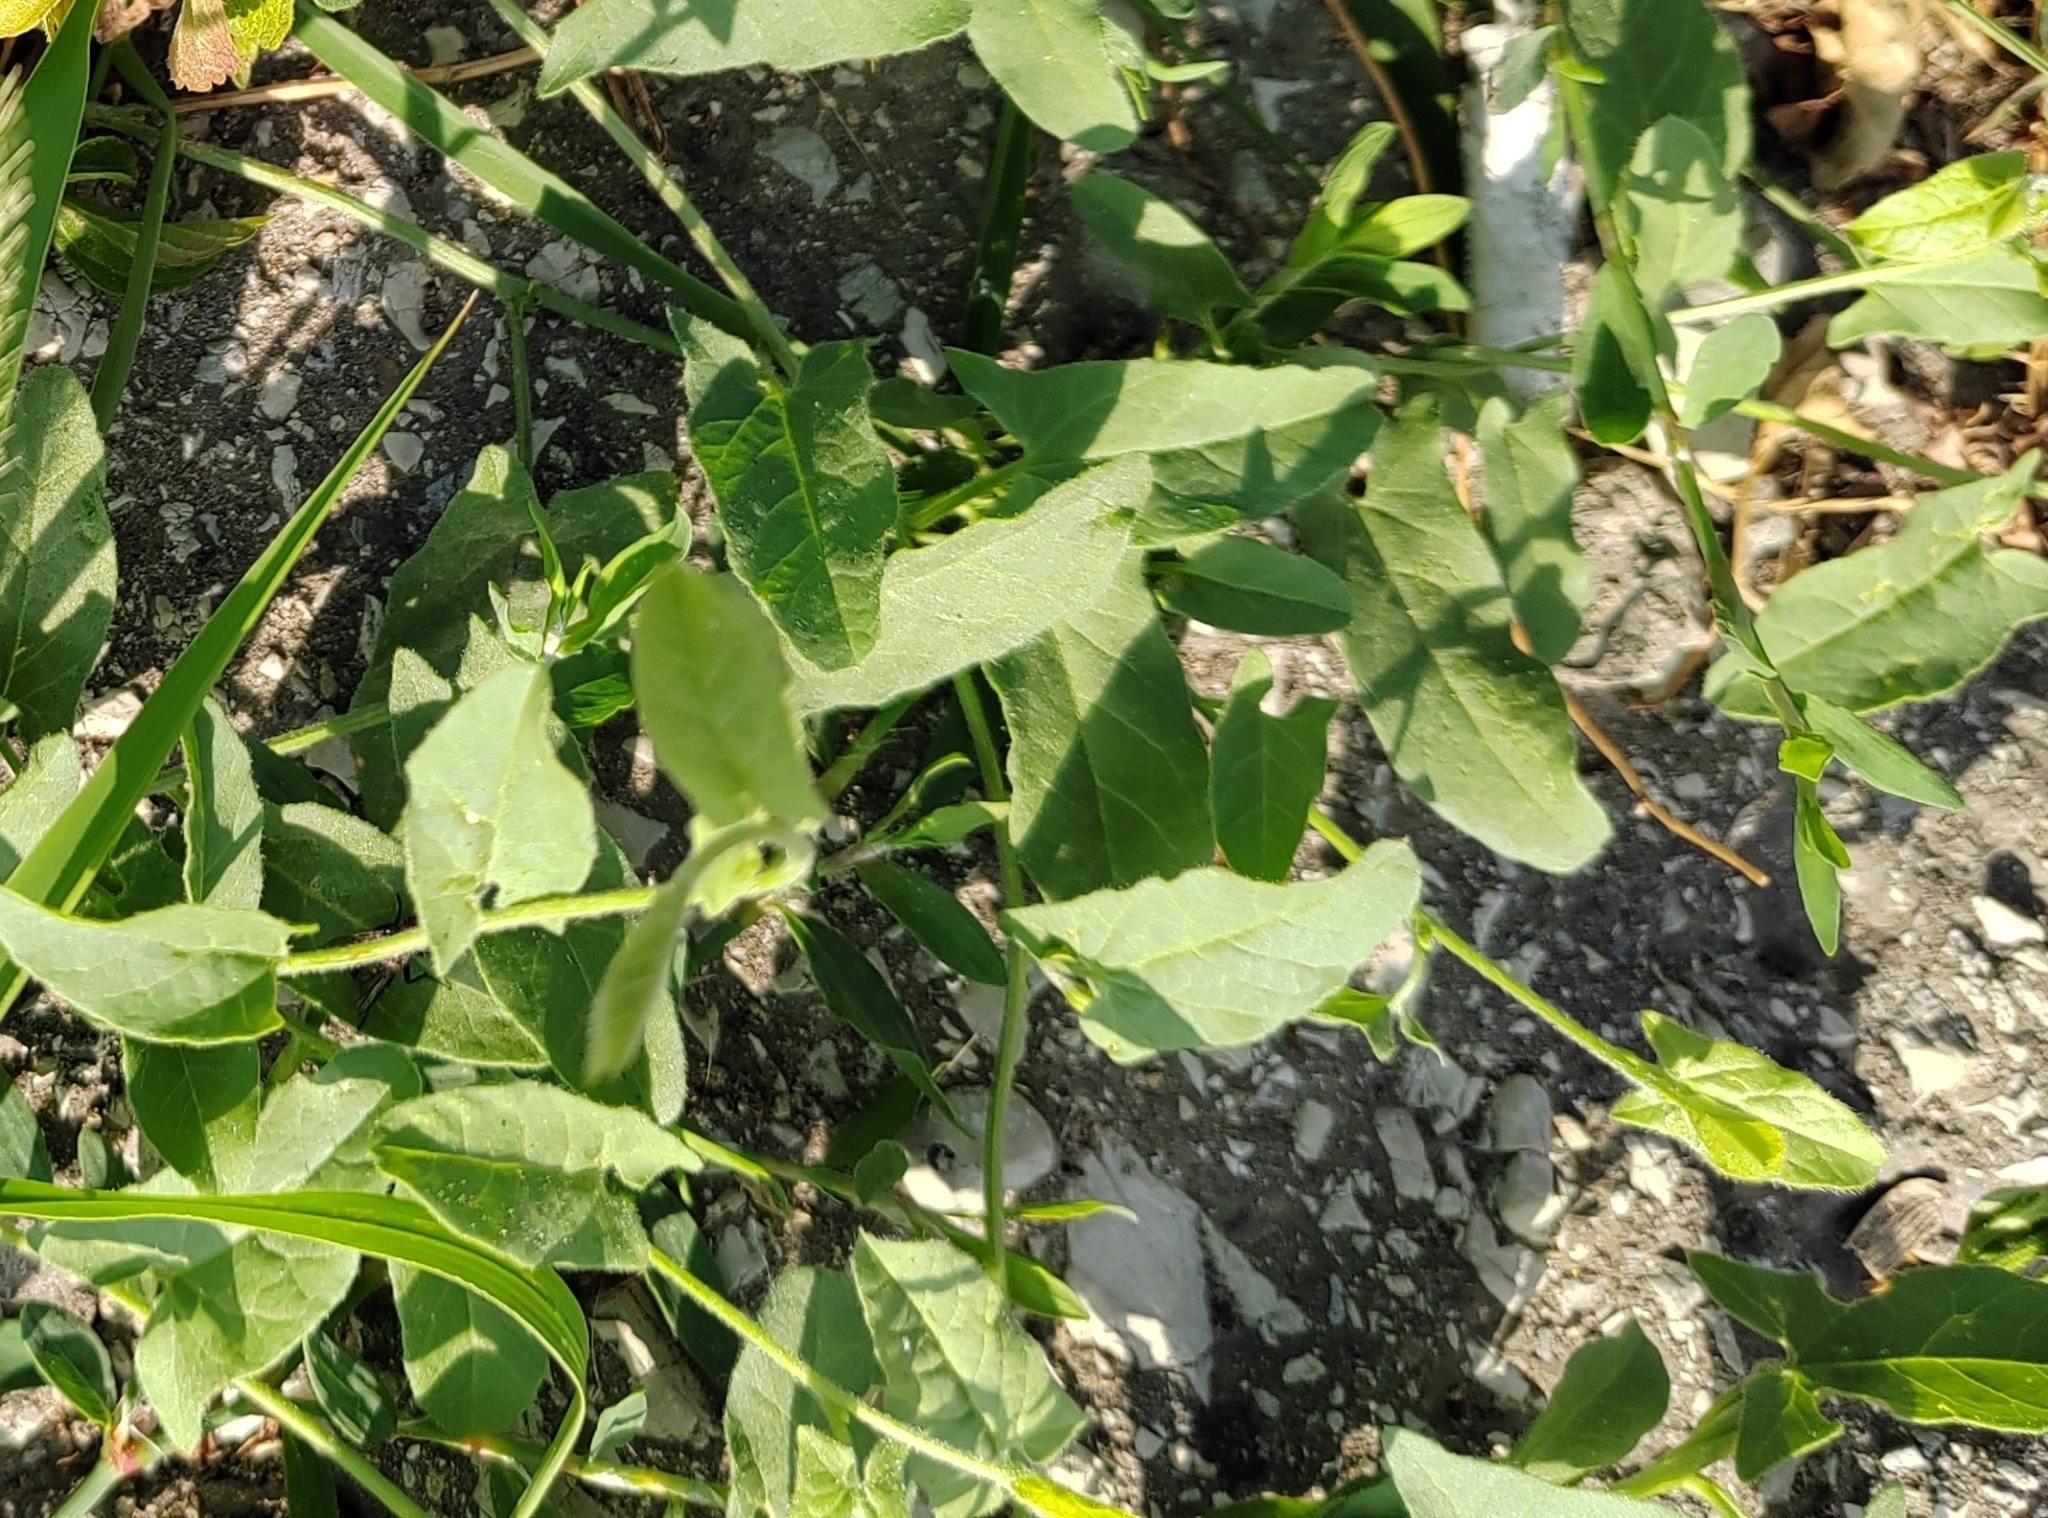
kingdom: Plantae
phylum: Tracheophyta
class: Magnoliopsida
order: Solanales
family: Convolvulaceae
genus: Convolvulus
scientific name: Convolvulus arvensis
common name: Field bindweed
